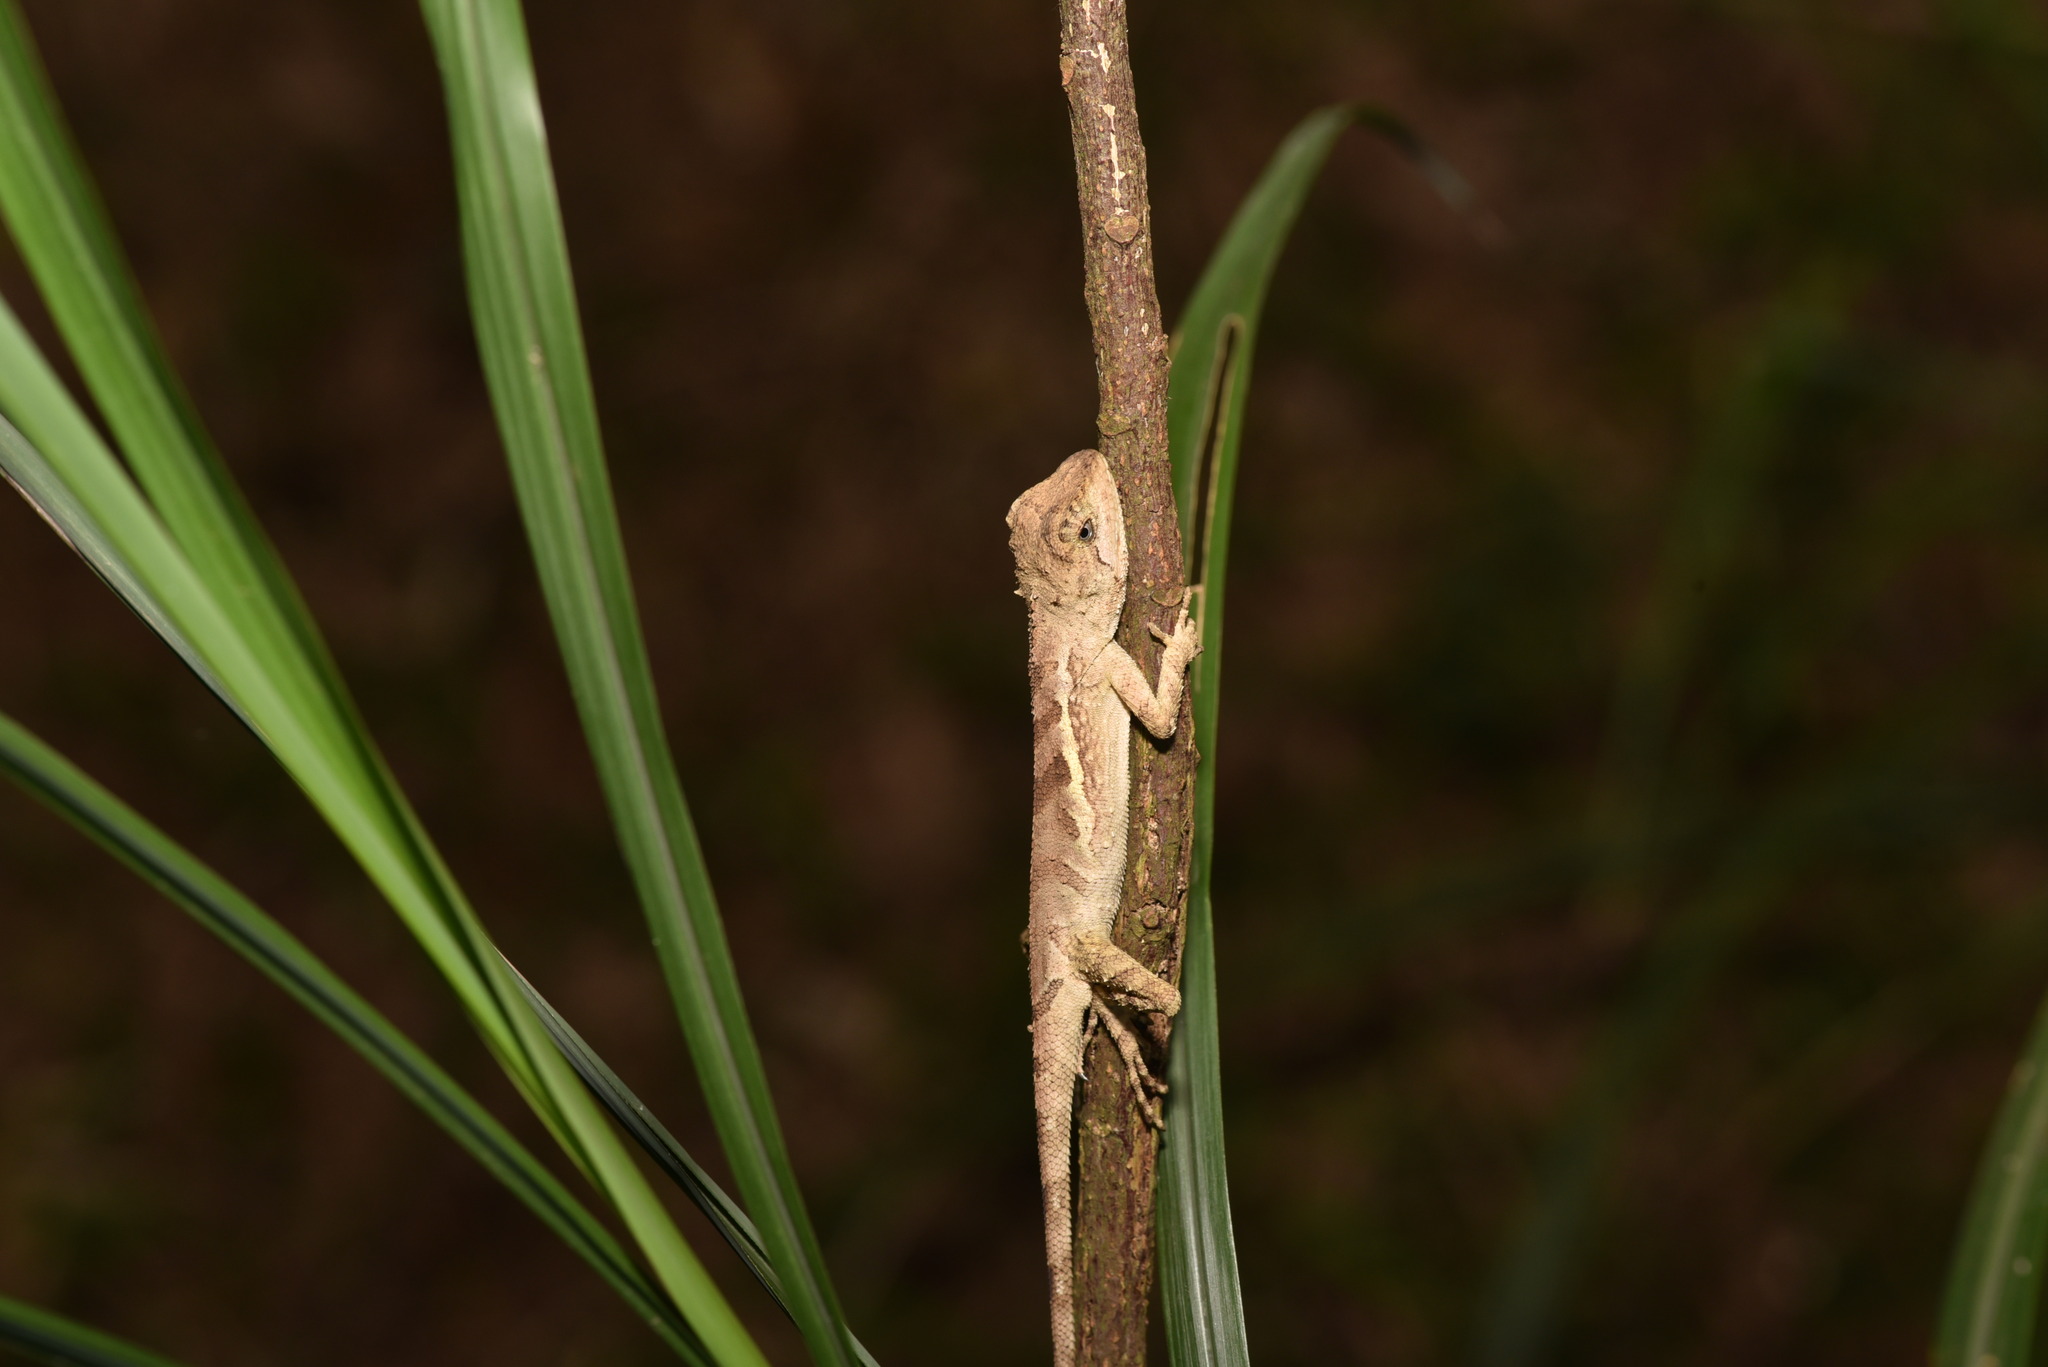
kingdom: Animalia
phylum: Chordata
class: Squamata
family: Agamidae
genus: Diploderma
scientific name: Diploderma swinhonis
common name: Taiwan japalure
